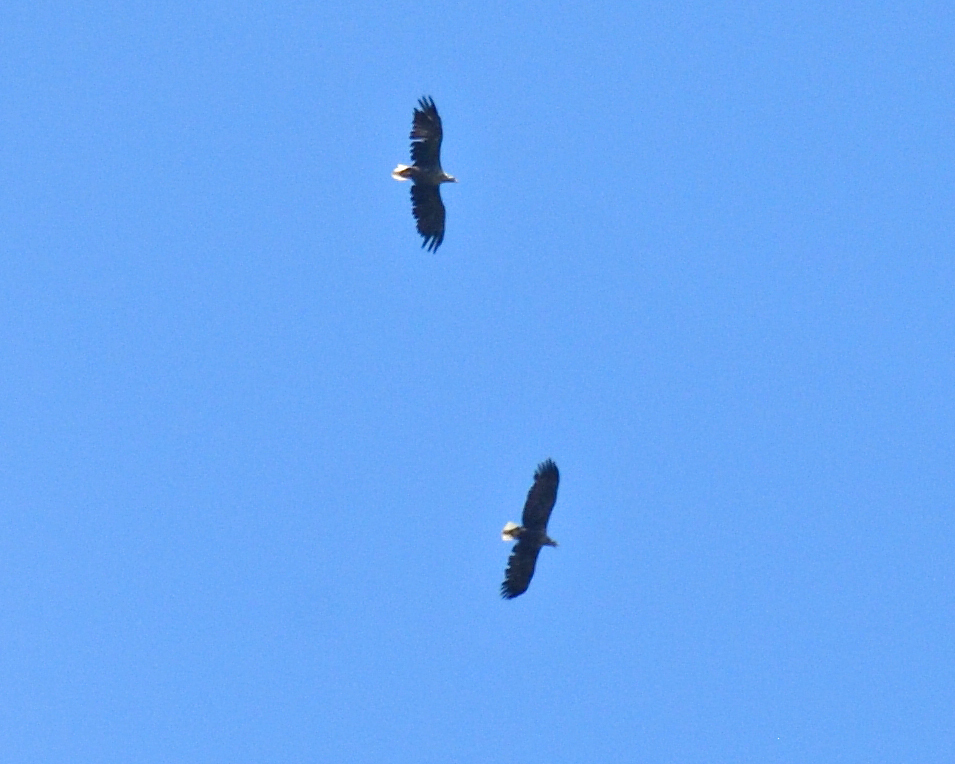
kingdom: Animalia
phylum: Chordata
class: Aves
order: Accipitriformes
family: Accipitridae
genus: Haliaeetus
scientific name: Haliaeetus albicilla
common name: White-tailed eagle
